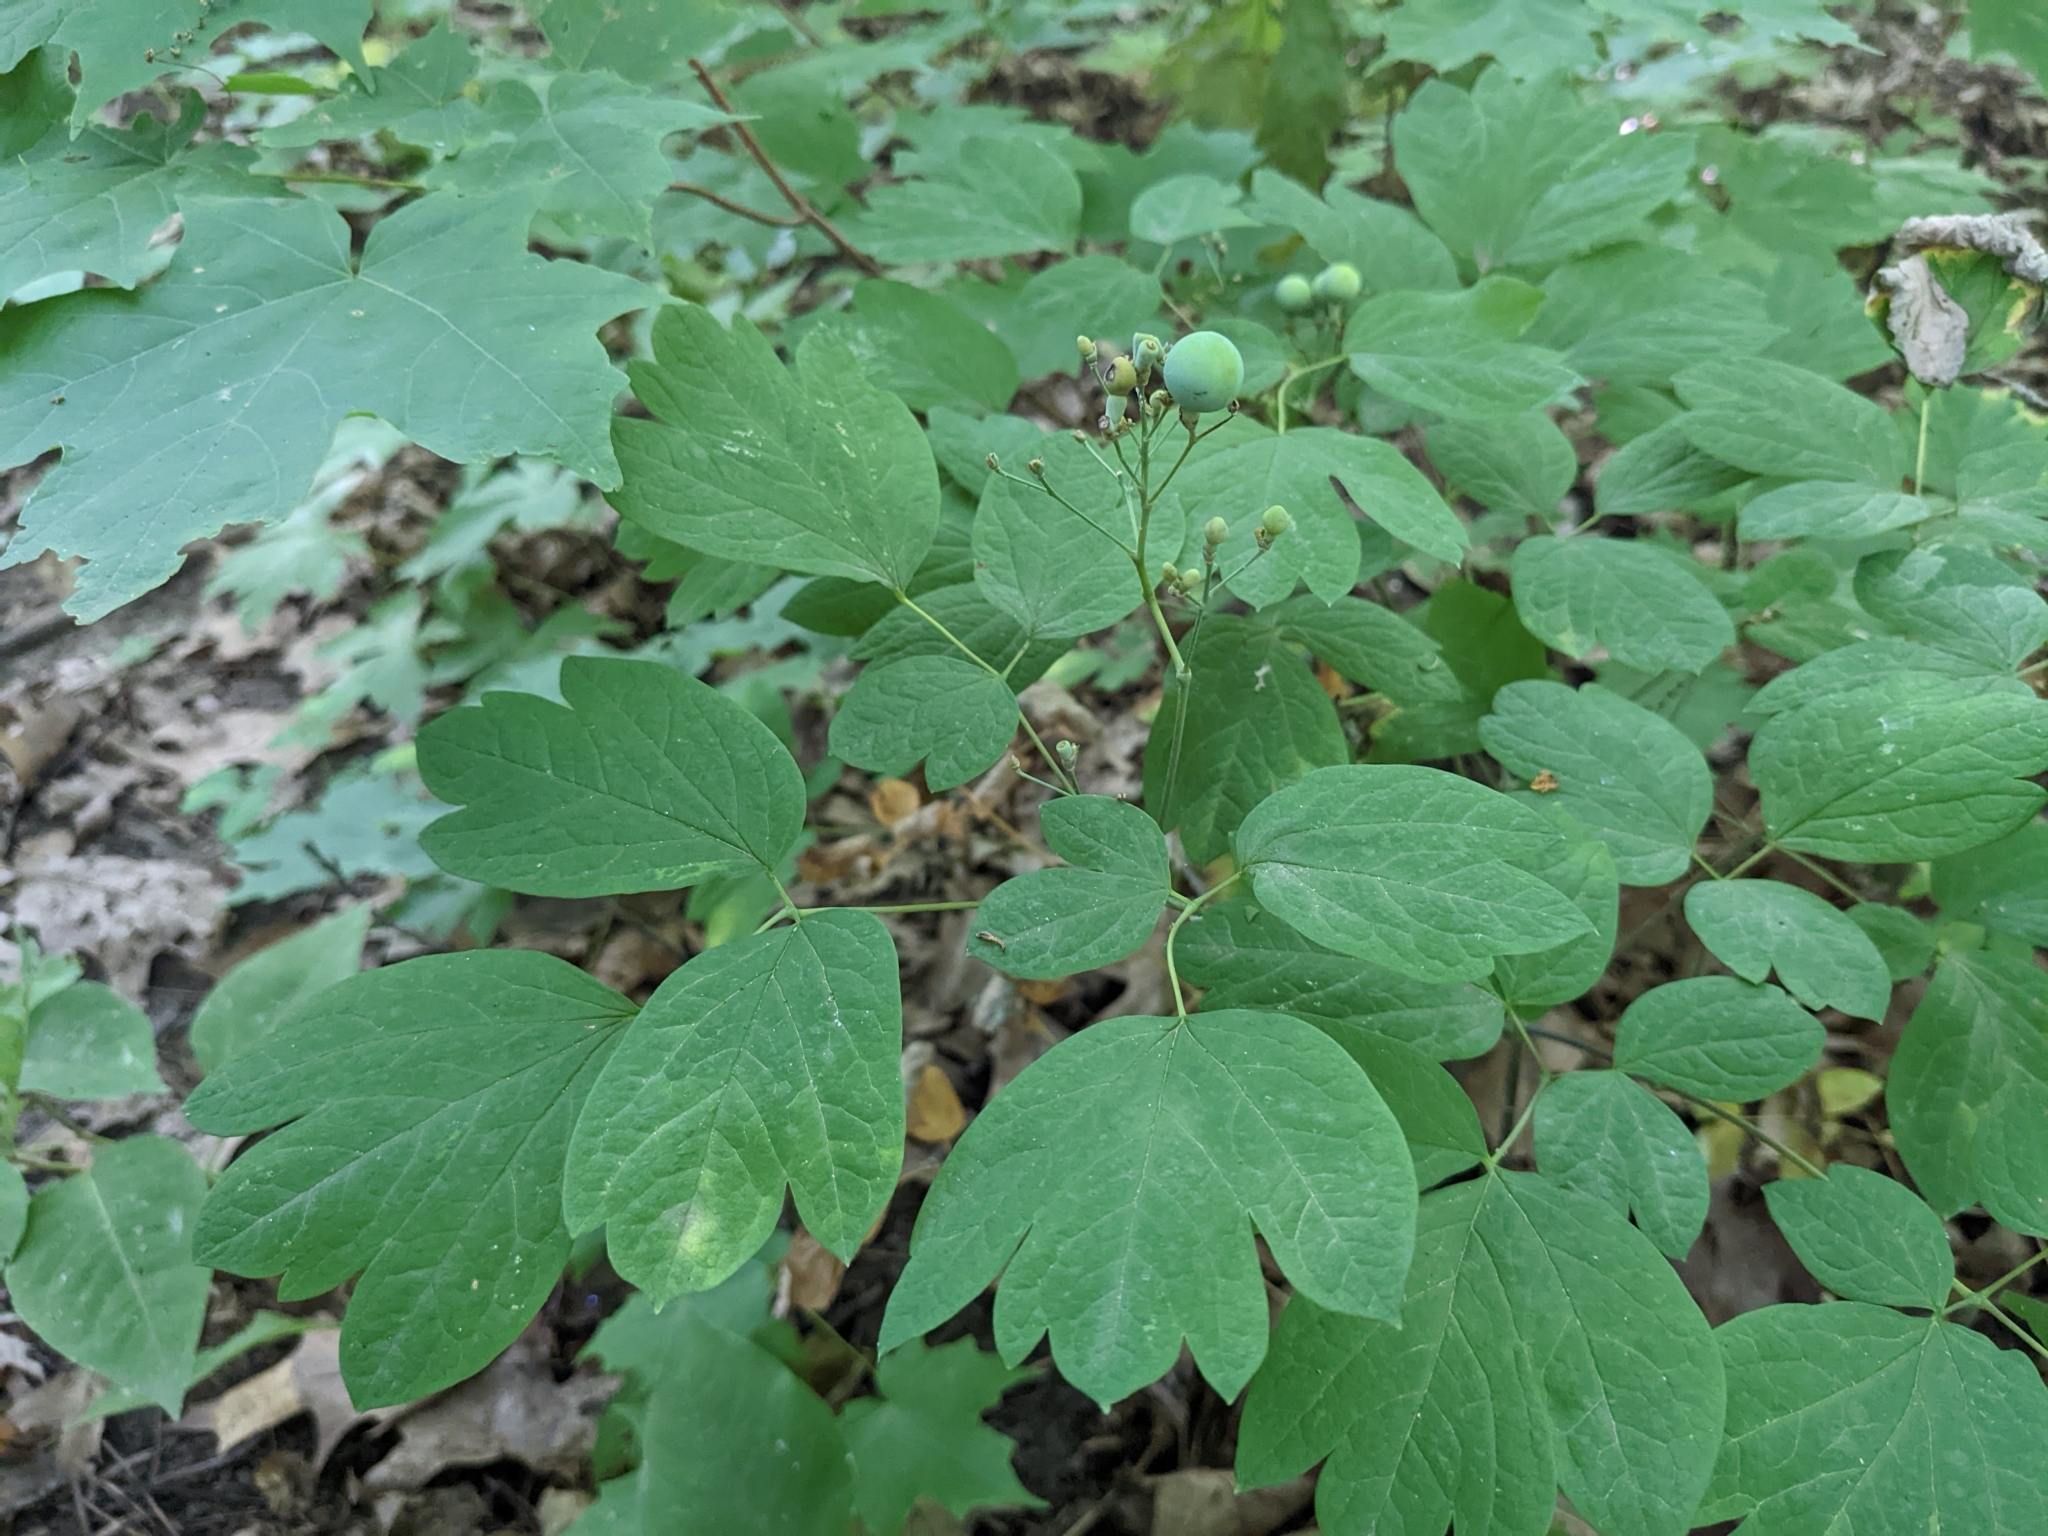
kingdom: Plantae
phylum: Tracheophyta
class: Magnoliopsida
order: Ranunculales
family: Berberidaceae
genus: Caulophyllum
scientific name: Caulophyllum thalictroides
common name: Blue cohosh
